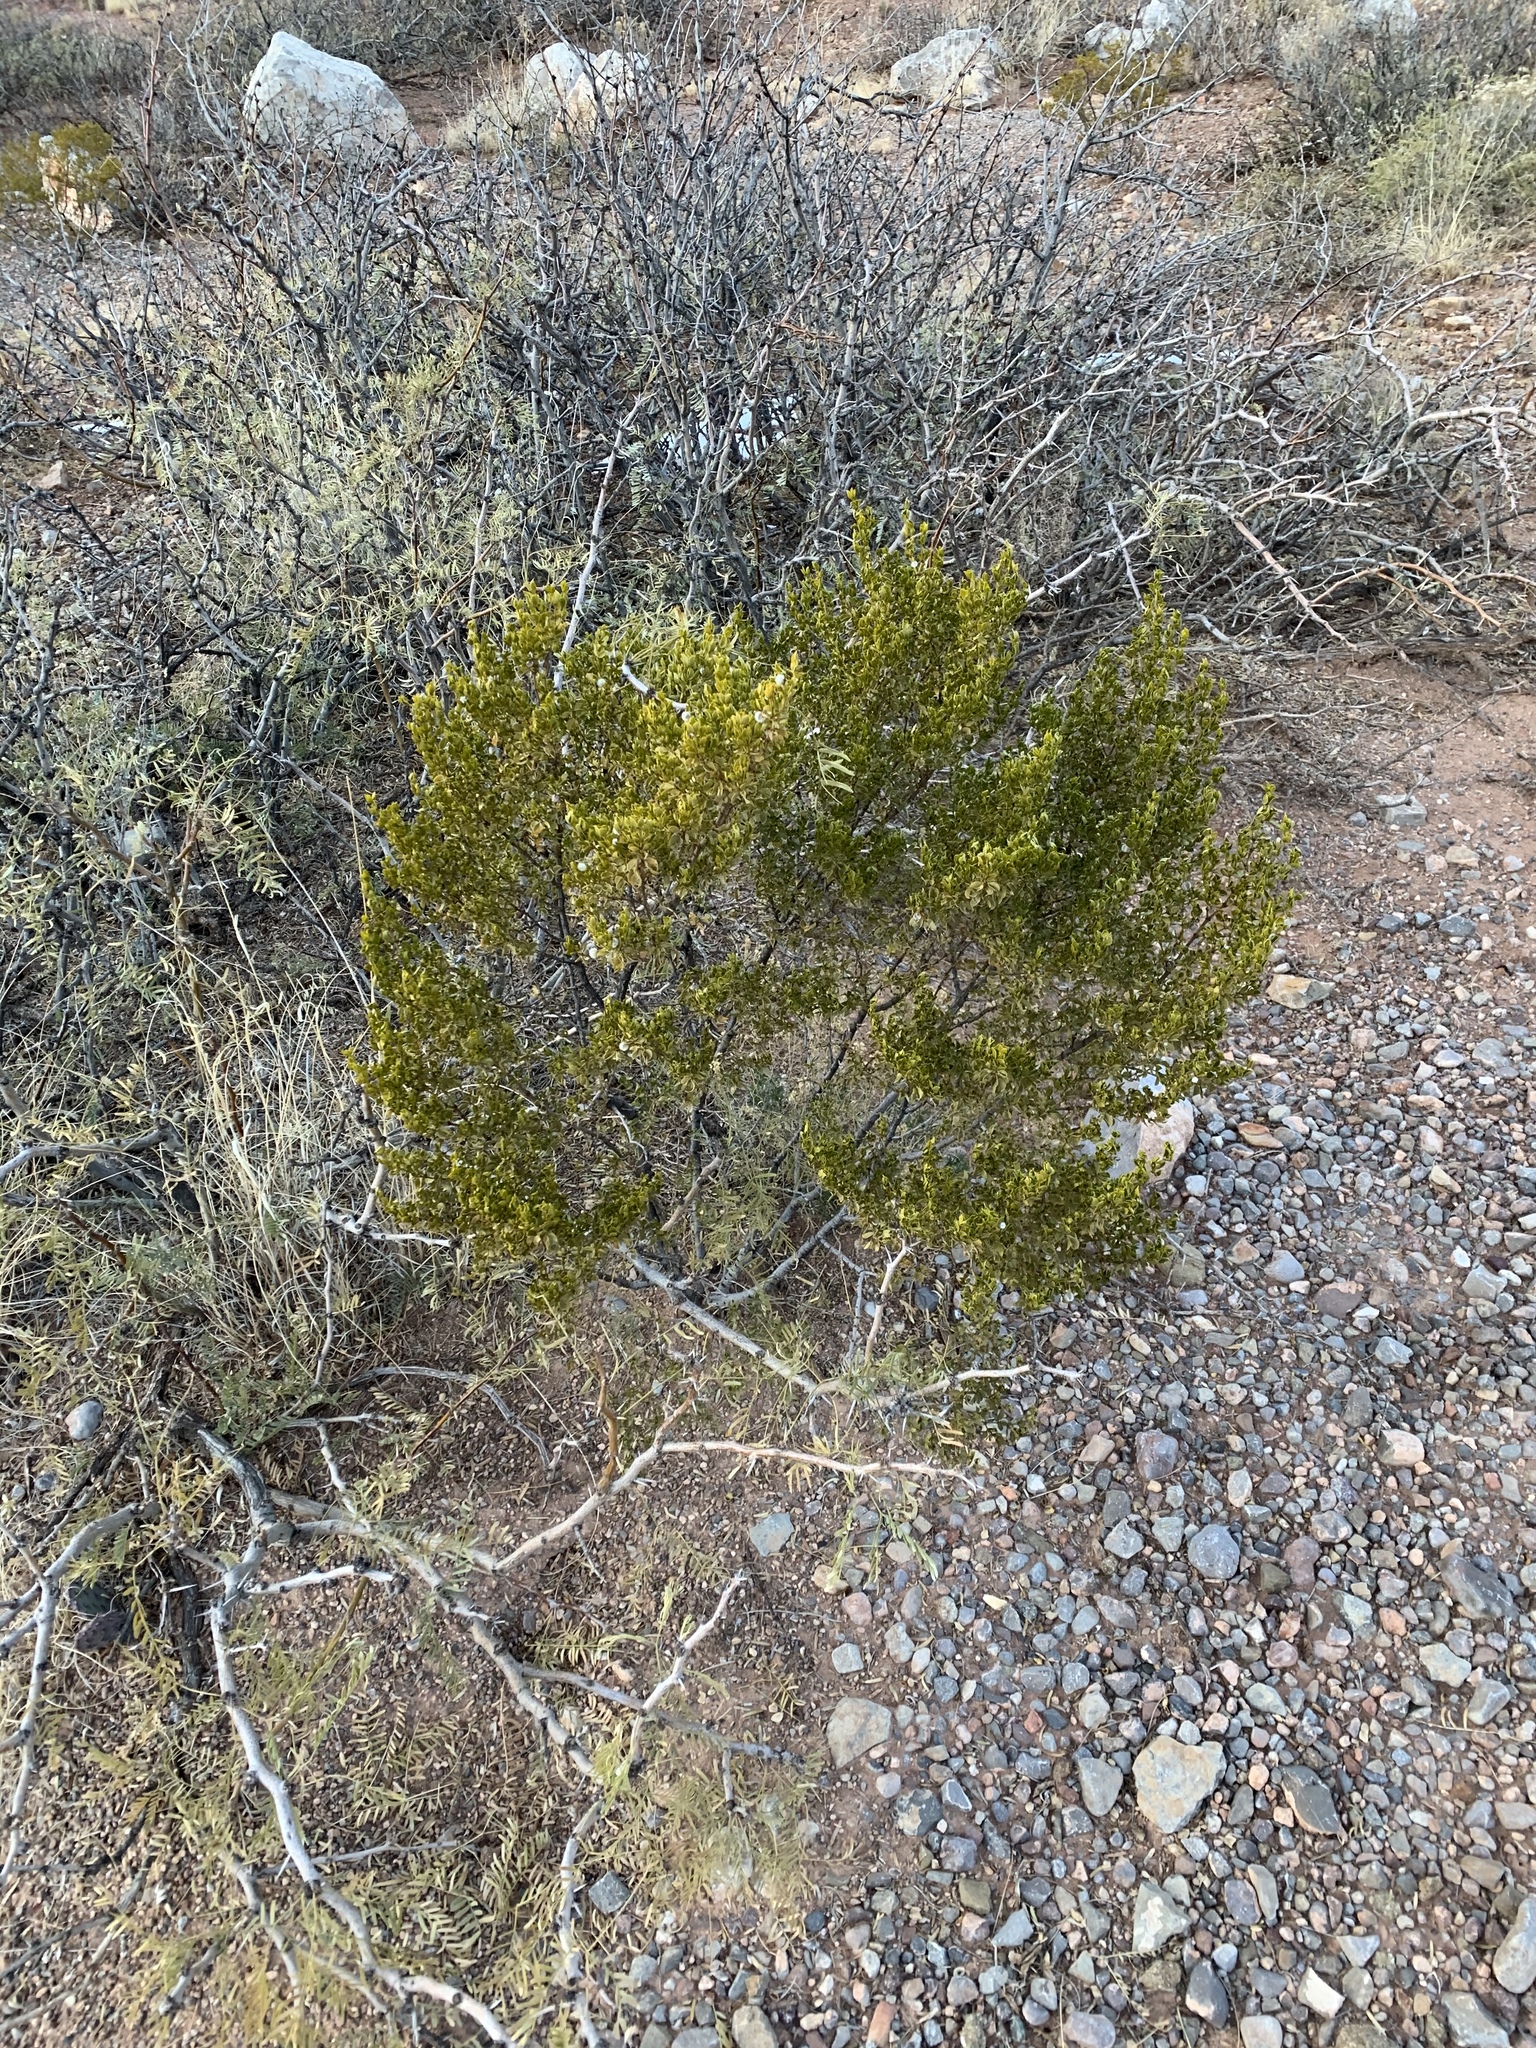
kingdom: Plantae
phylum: Tracheophyta
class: Magnoliopsida
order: Zygophyllales
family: Zygophyllaceae
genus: Larrea
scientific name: Larrea tridentata
